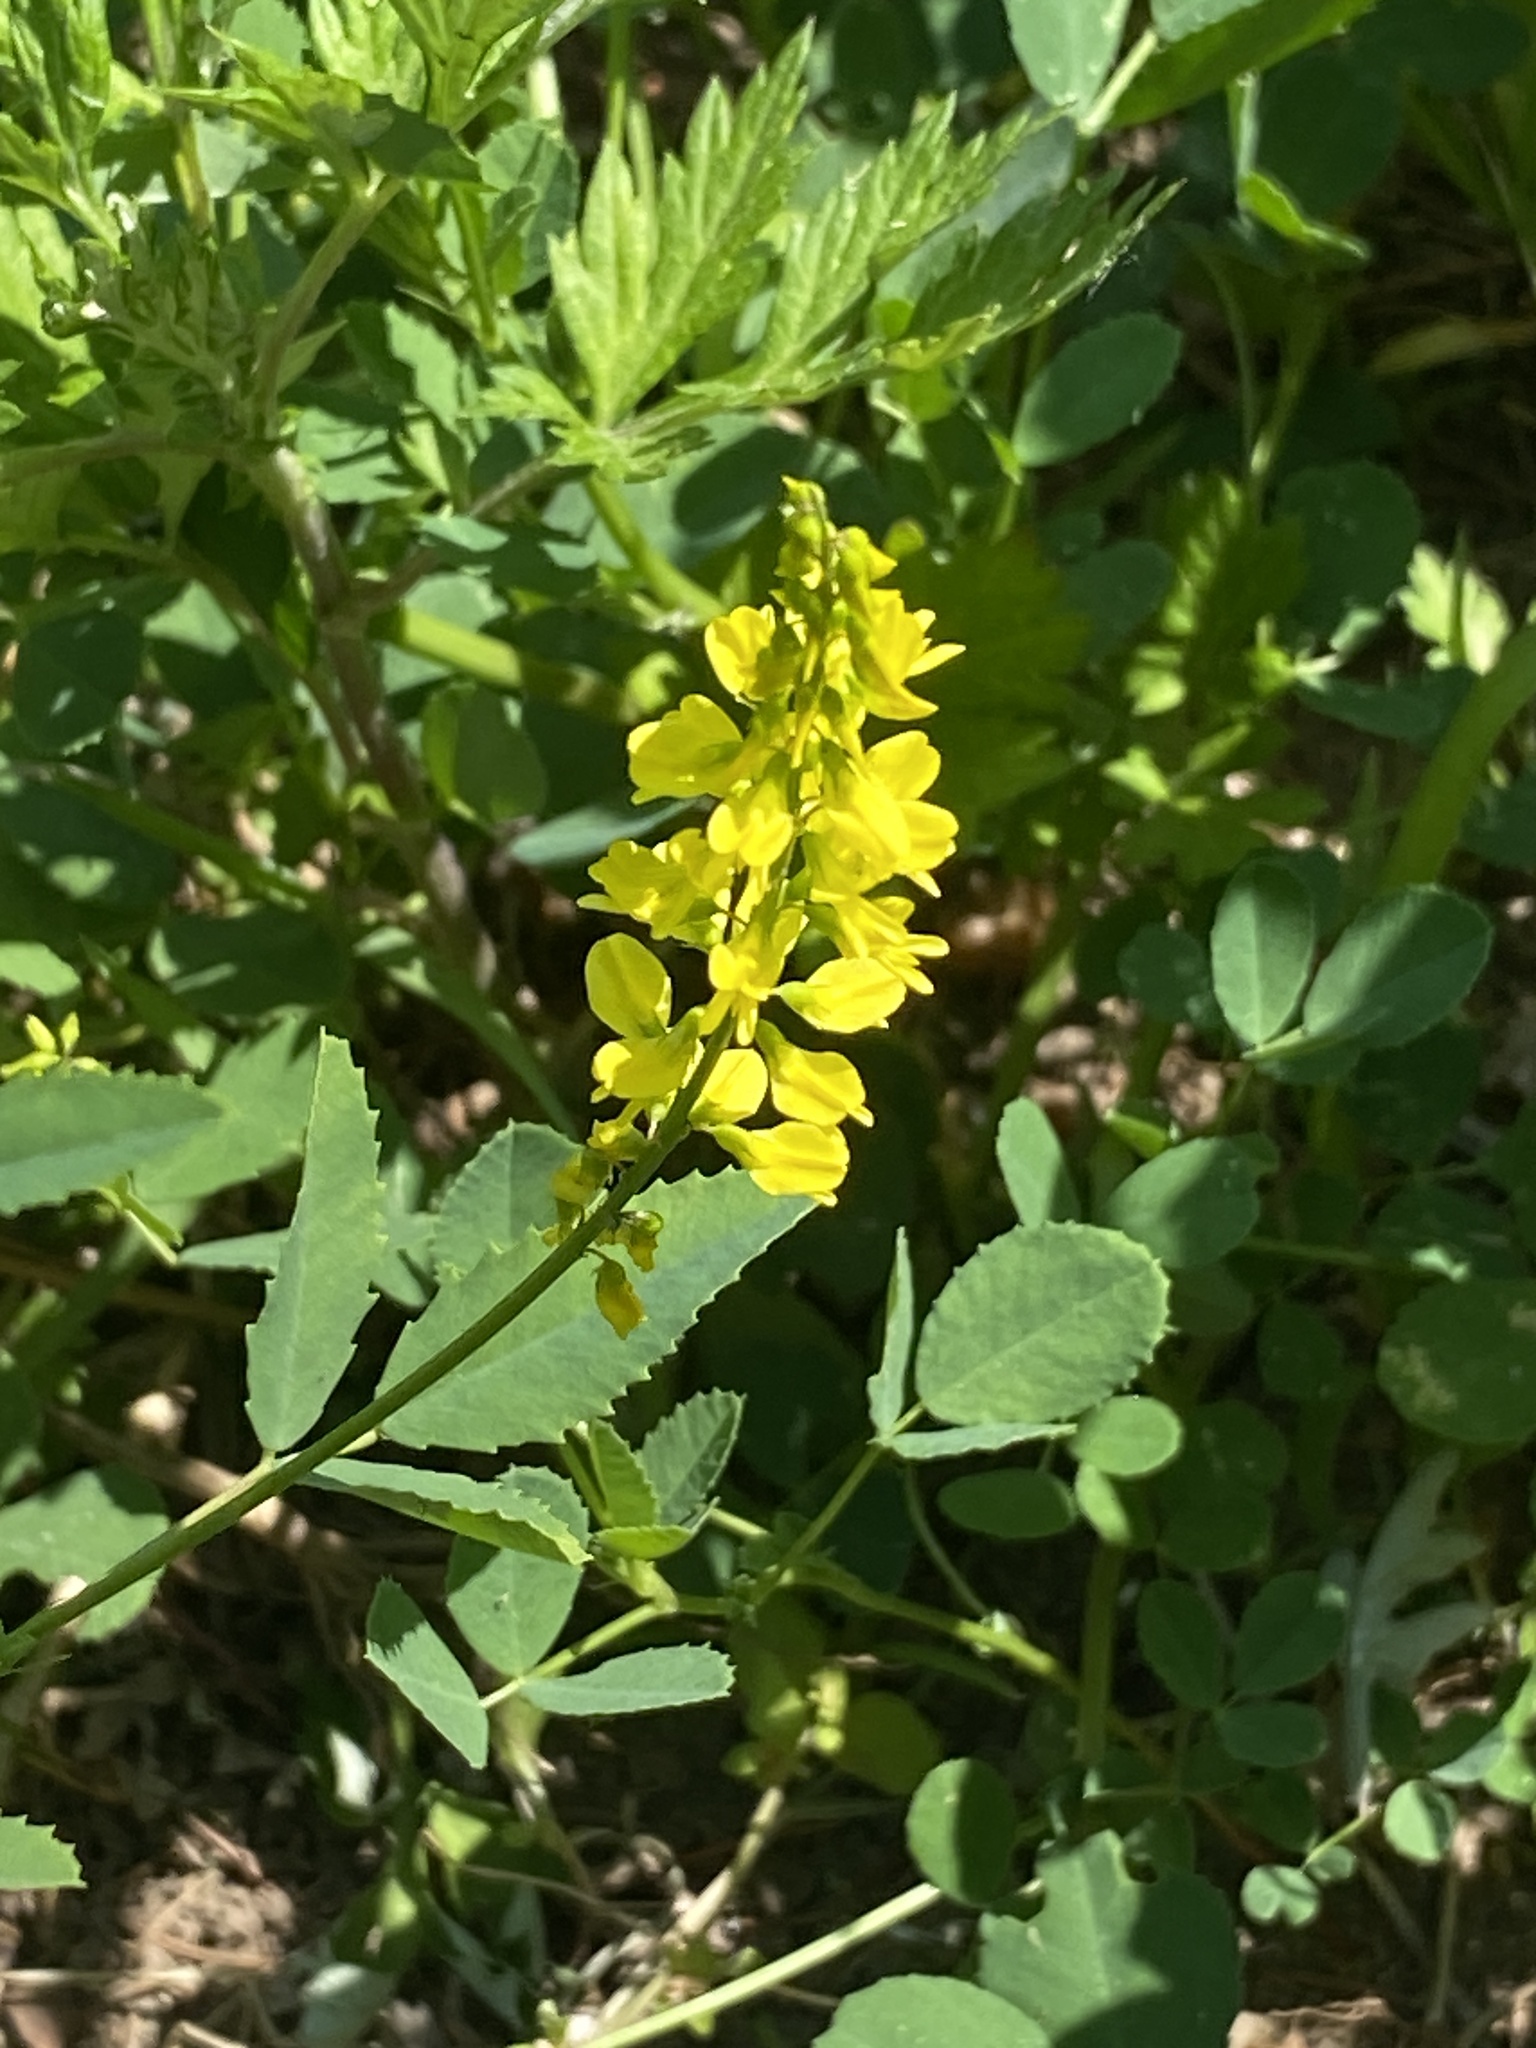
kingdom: Plantae
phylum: Tracheophyta
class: Magnoliopsida
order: Fabales
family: Fabaceae
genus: Melilotus
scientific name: Melilotus officinalis
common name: Sweetclover
